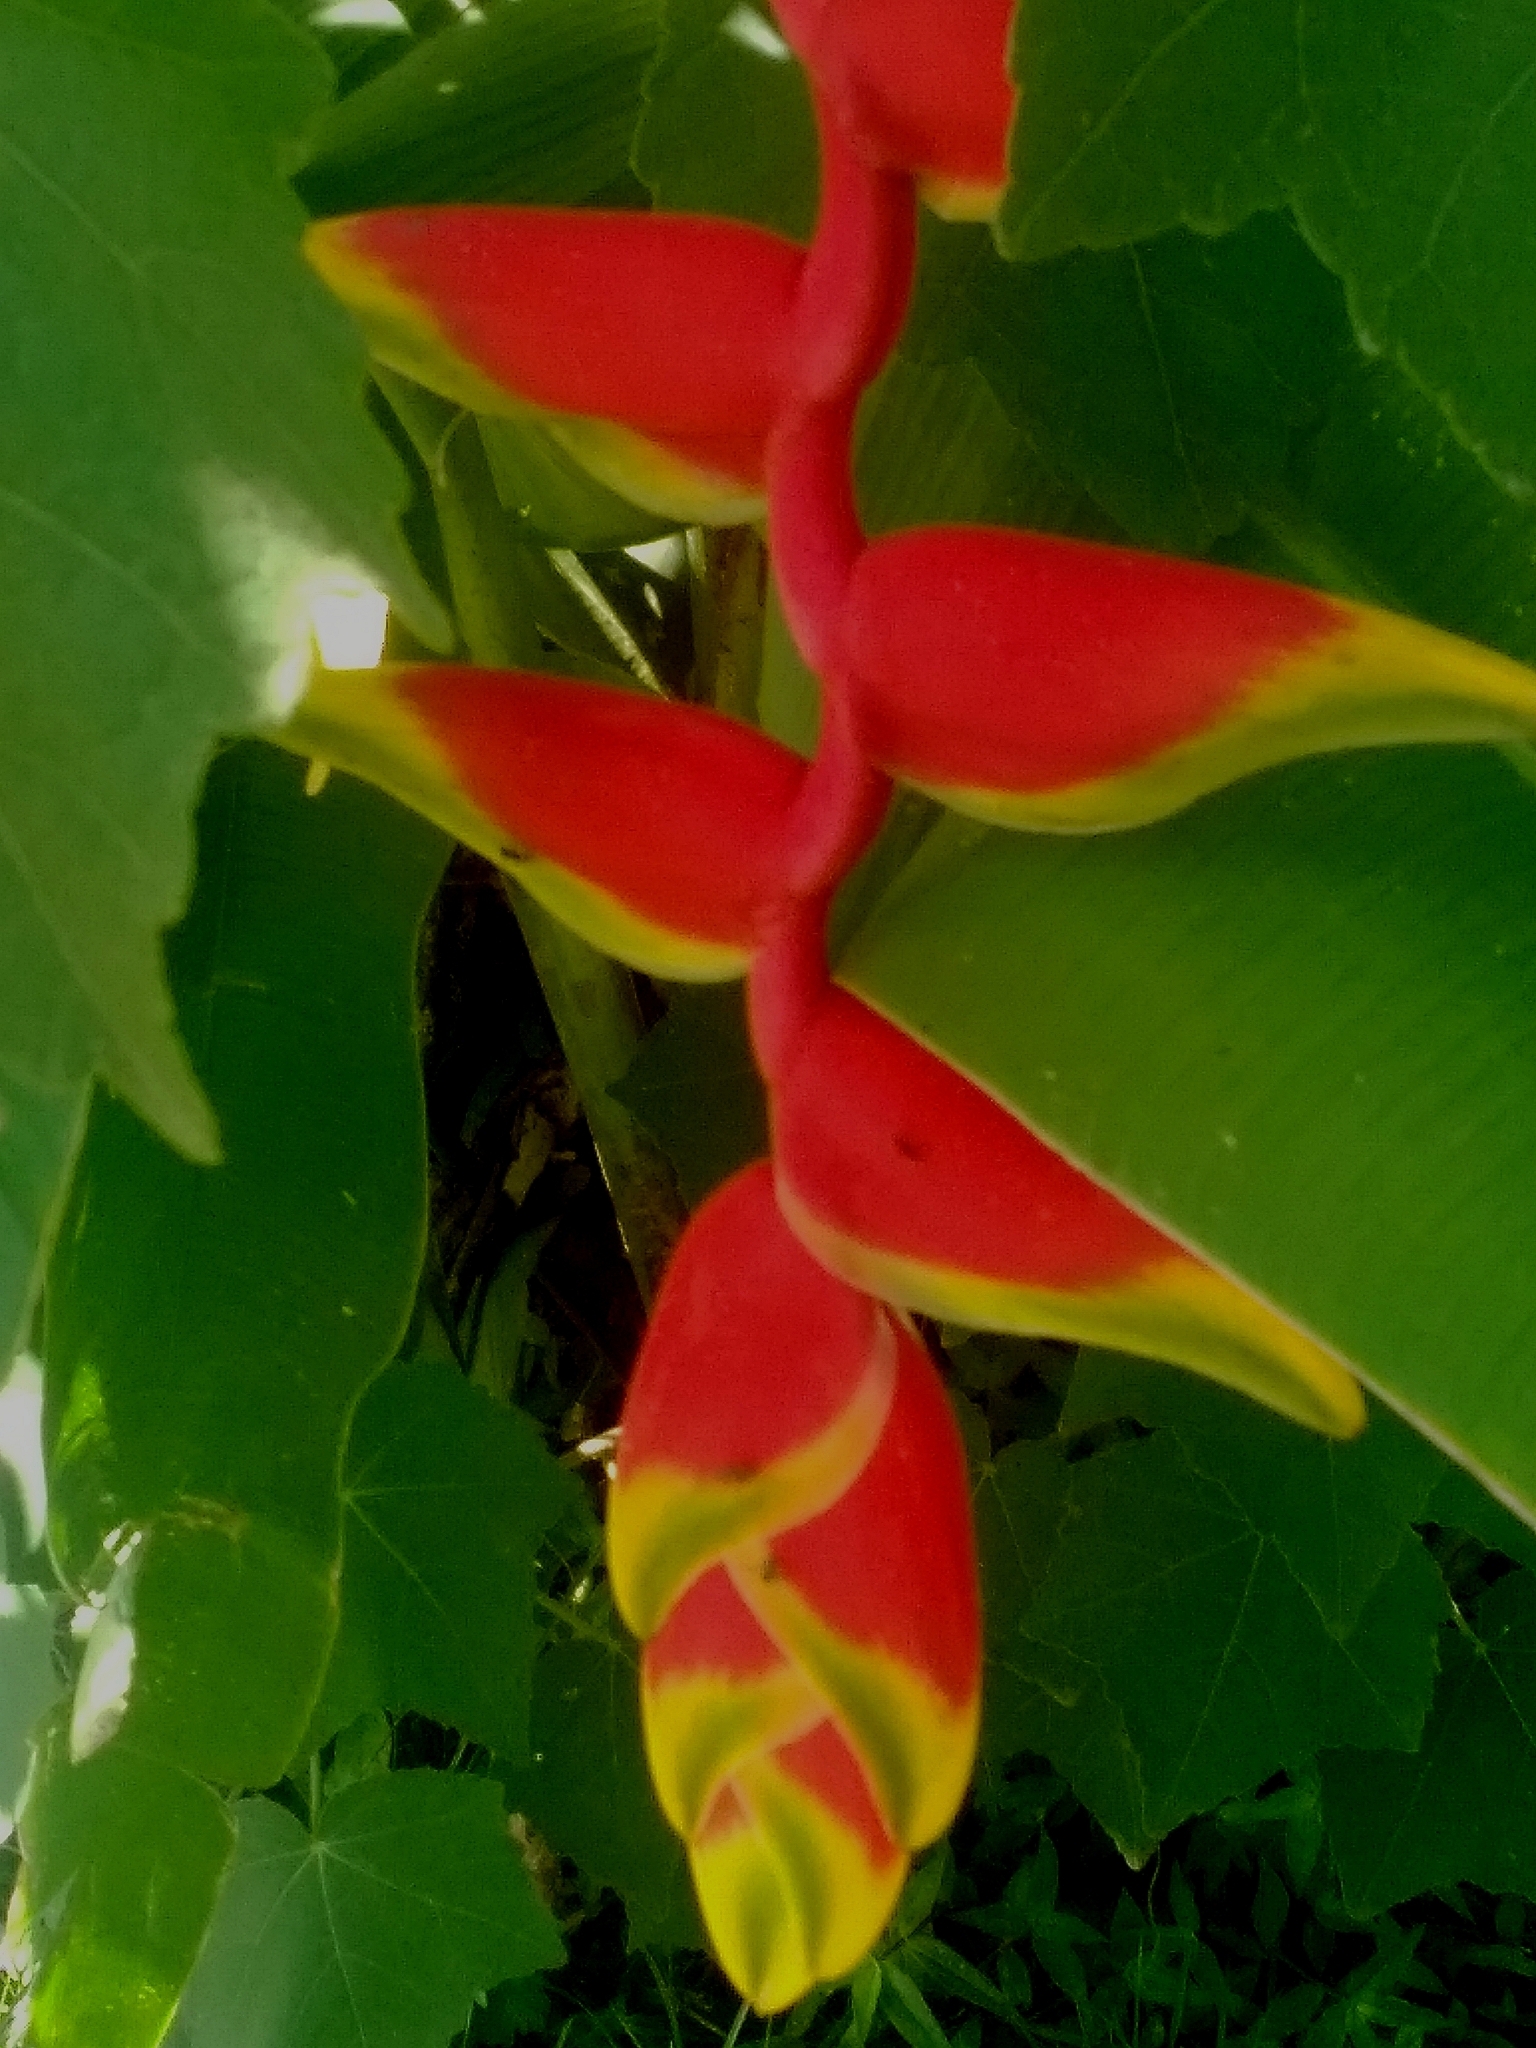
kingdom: Plantae
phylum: Tracheophyta
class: Liliopsida
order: Zingiberales
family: Heliconiaceae
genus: Heliconia
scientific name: Heliconia rostrata
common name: False bird of paradise
